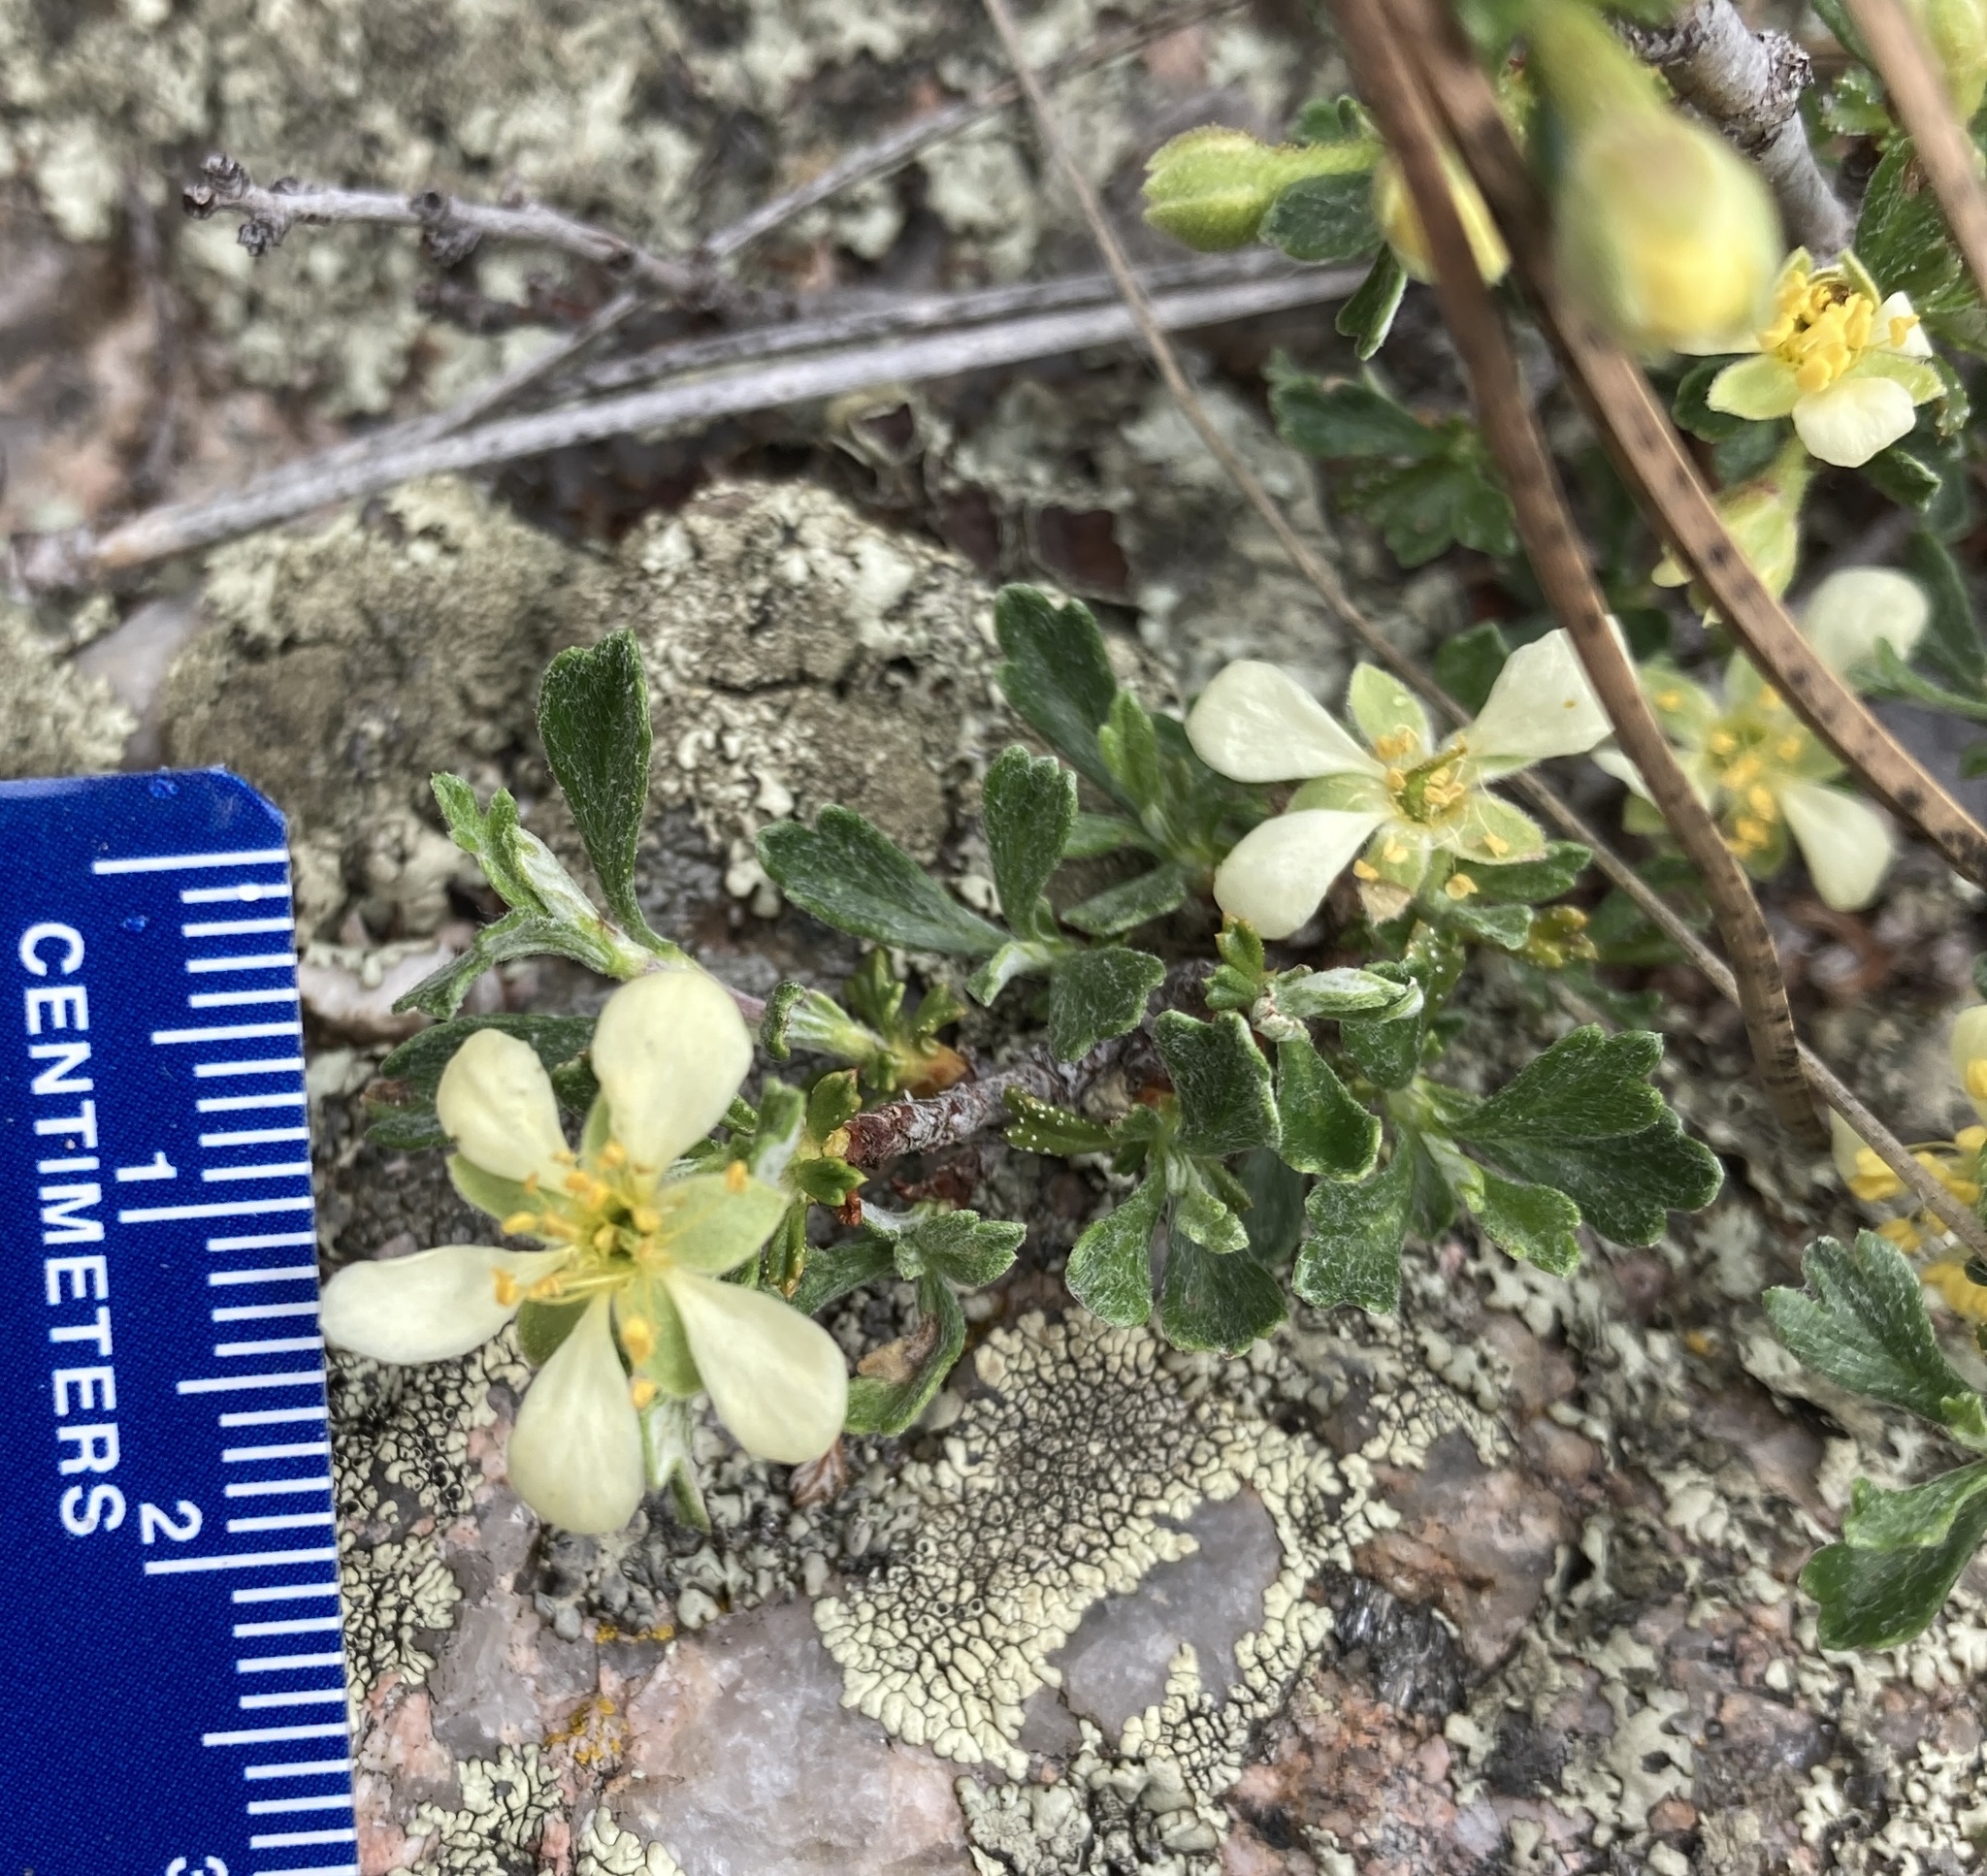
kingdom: Plantae
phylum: Tracheophyta
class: Magnoliopsida
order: Rosales
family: Rosaceae
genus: Purshia
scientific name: Purshia tridentata
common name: Antelope bitterbrush
